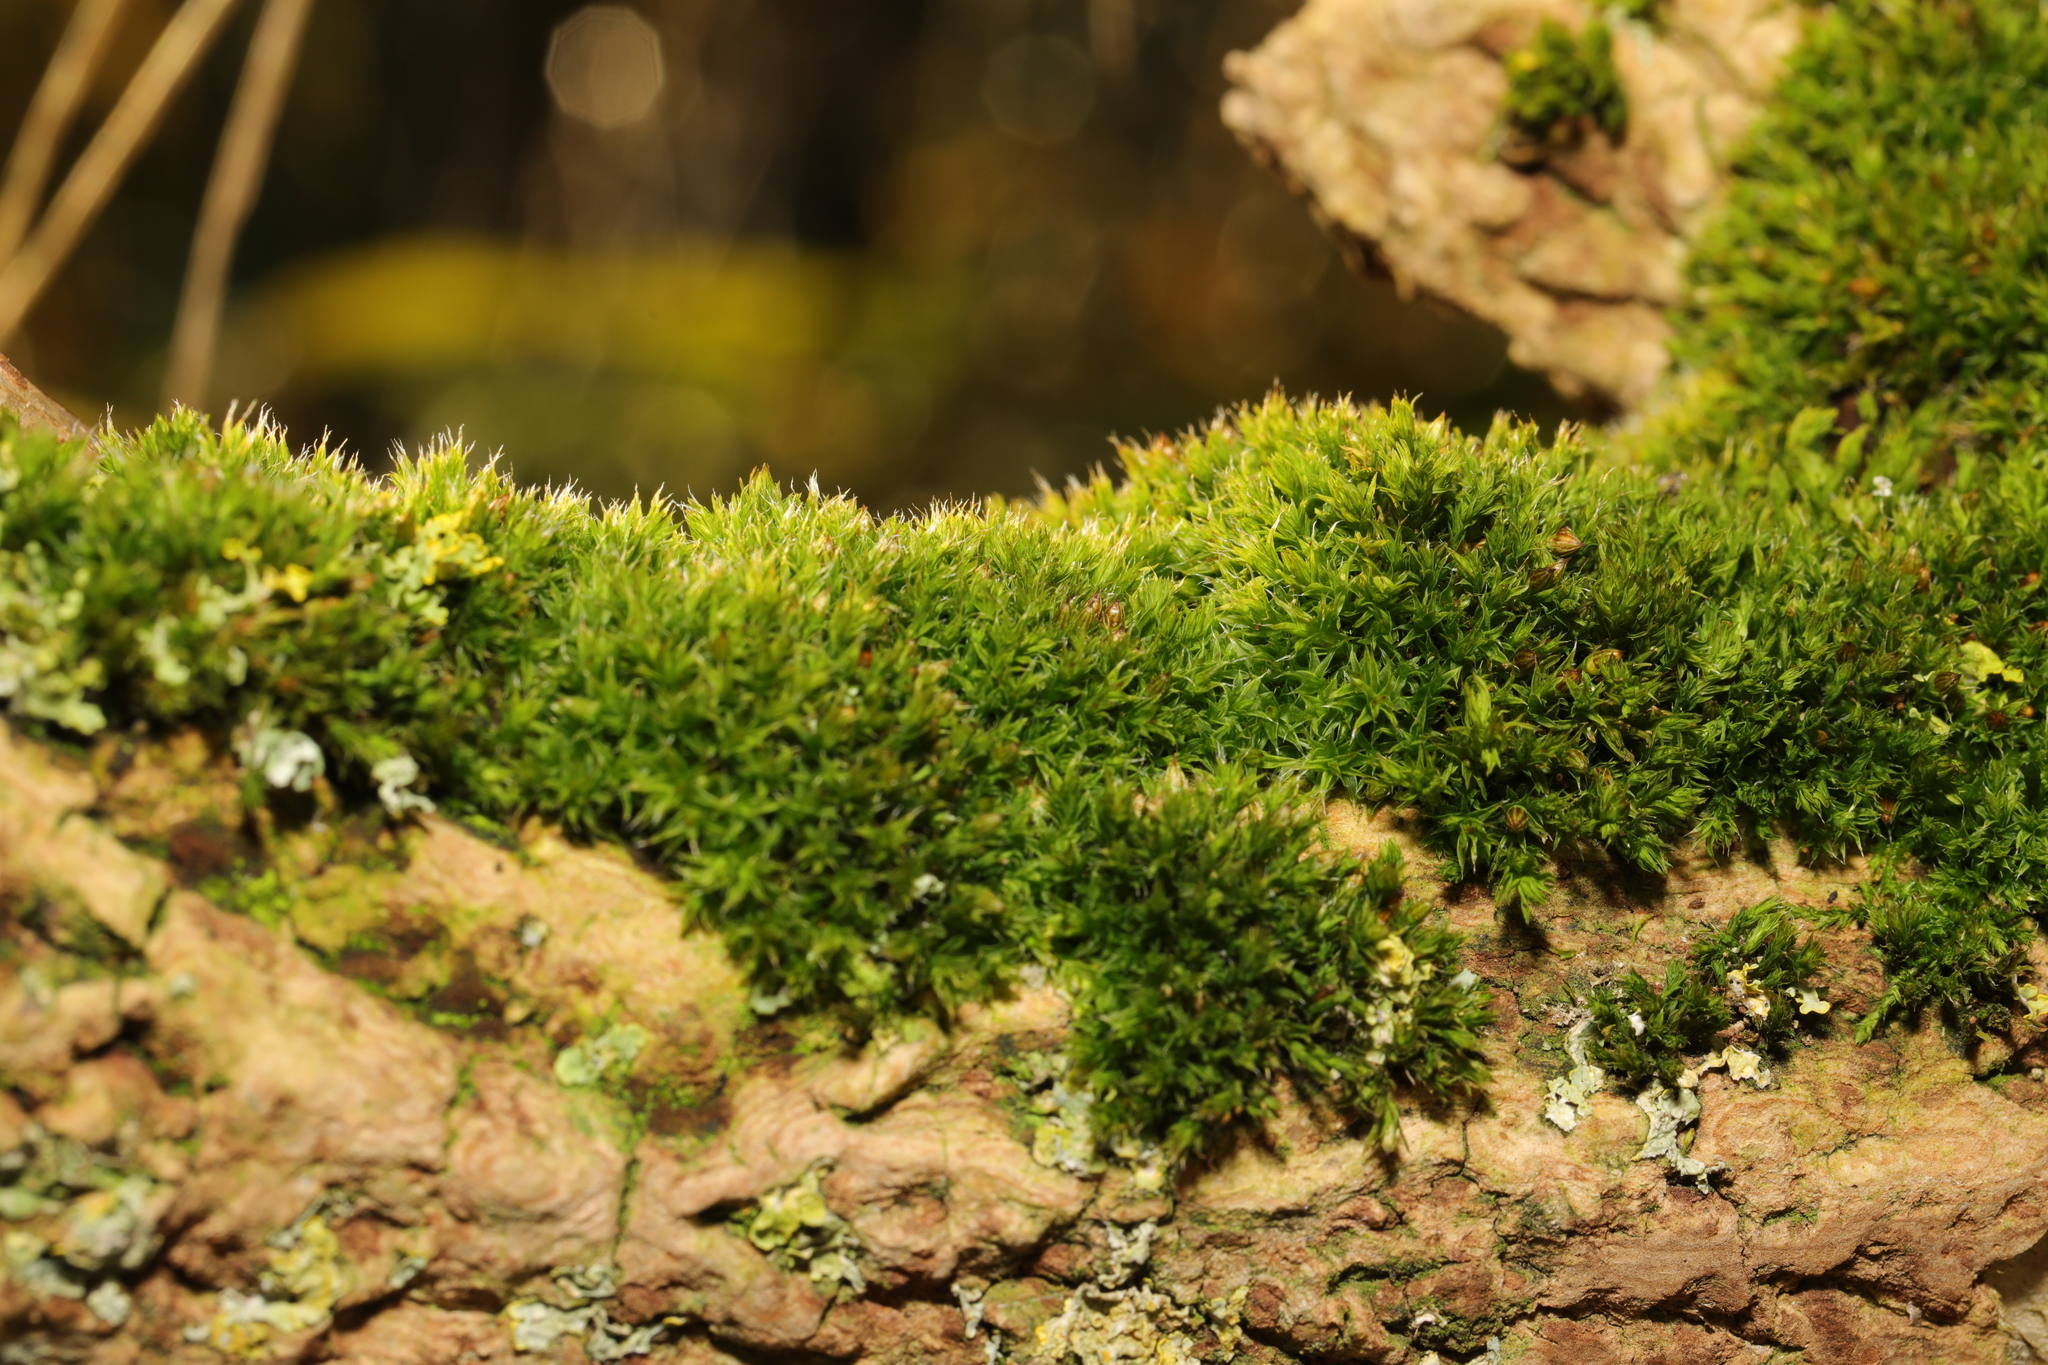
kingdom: Plantae
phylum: Bryophyta
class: Bryopsida
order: Orthotrichales
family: Orthotrichaceae
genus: Orthotrichum
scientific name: Orthotrichum diaphanum
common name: White-tipped bristle-moss
